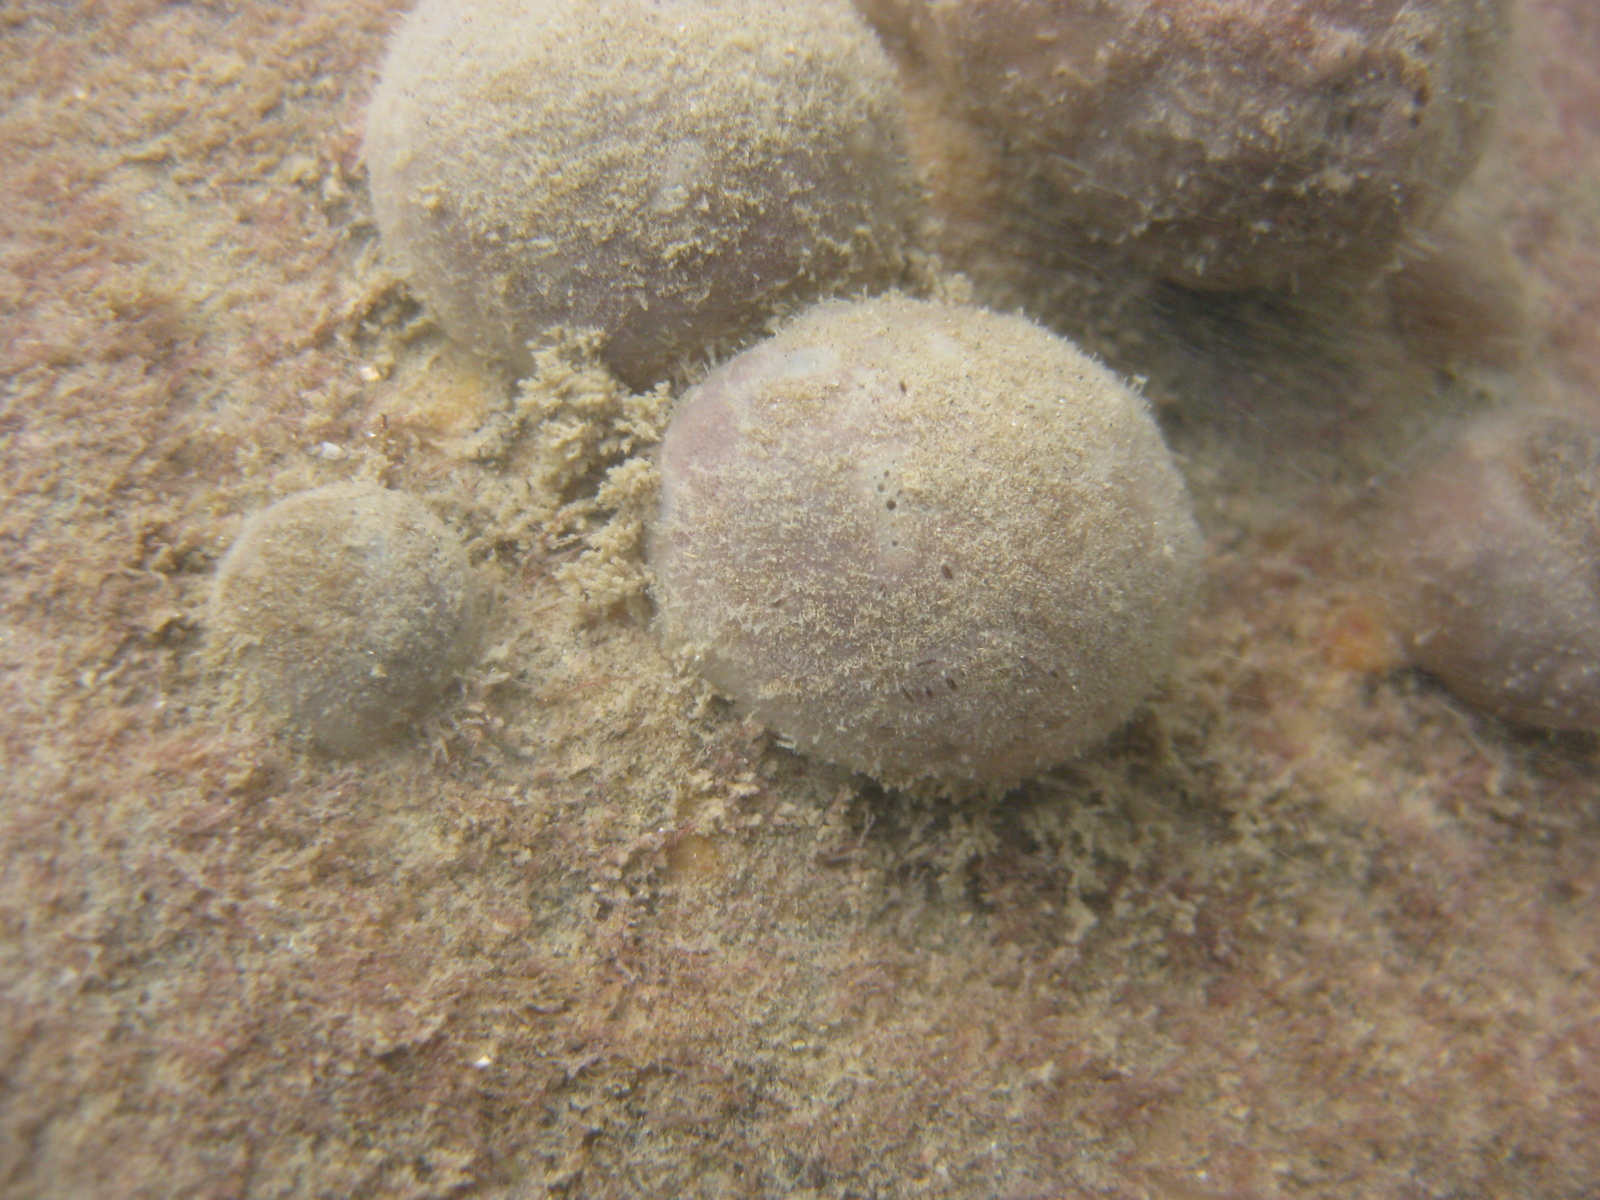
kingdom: Animalia
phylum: Porifera
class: Demospongiae
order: Suberitida
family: Suberitidae
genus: Suberites
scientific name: Suberites perfectus
